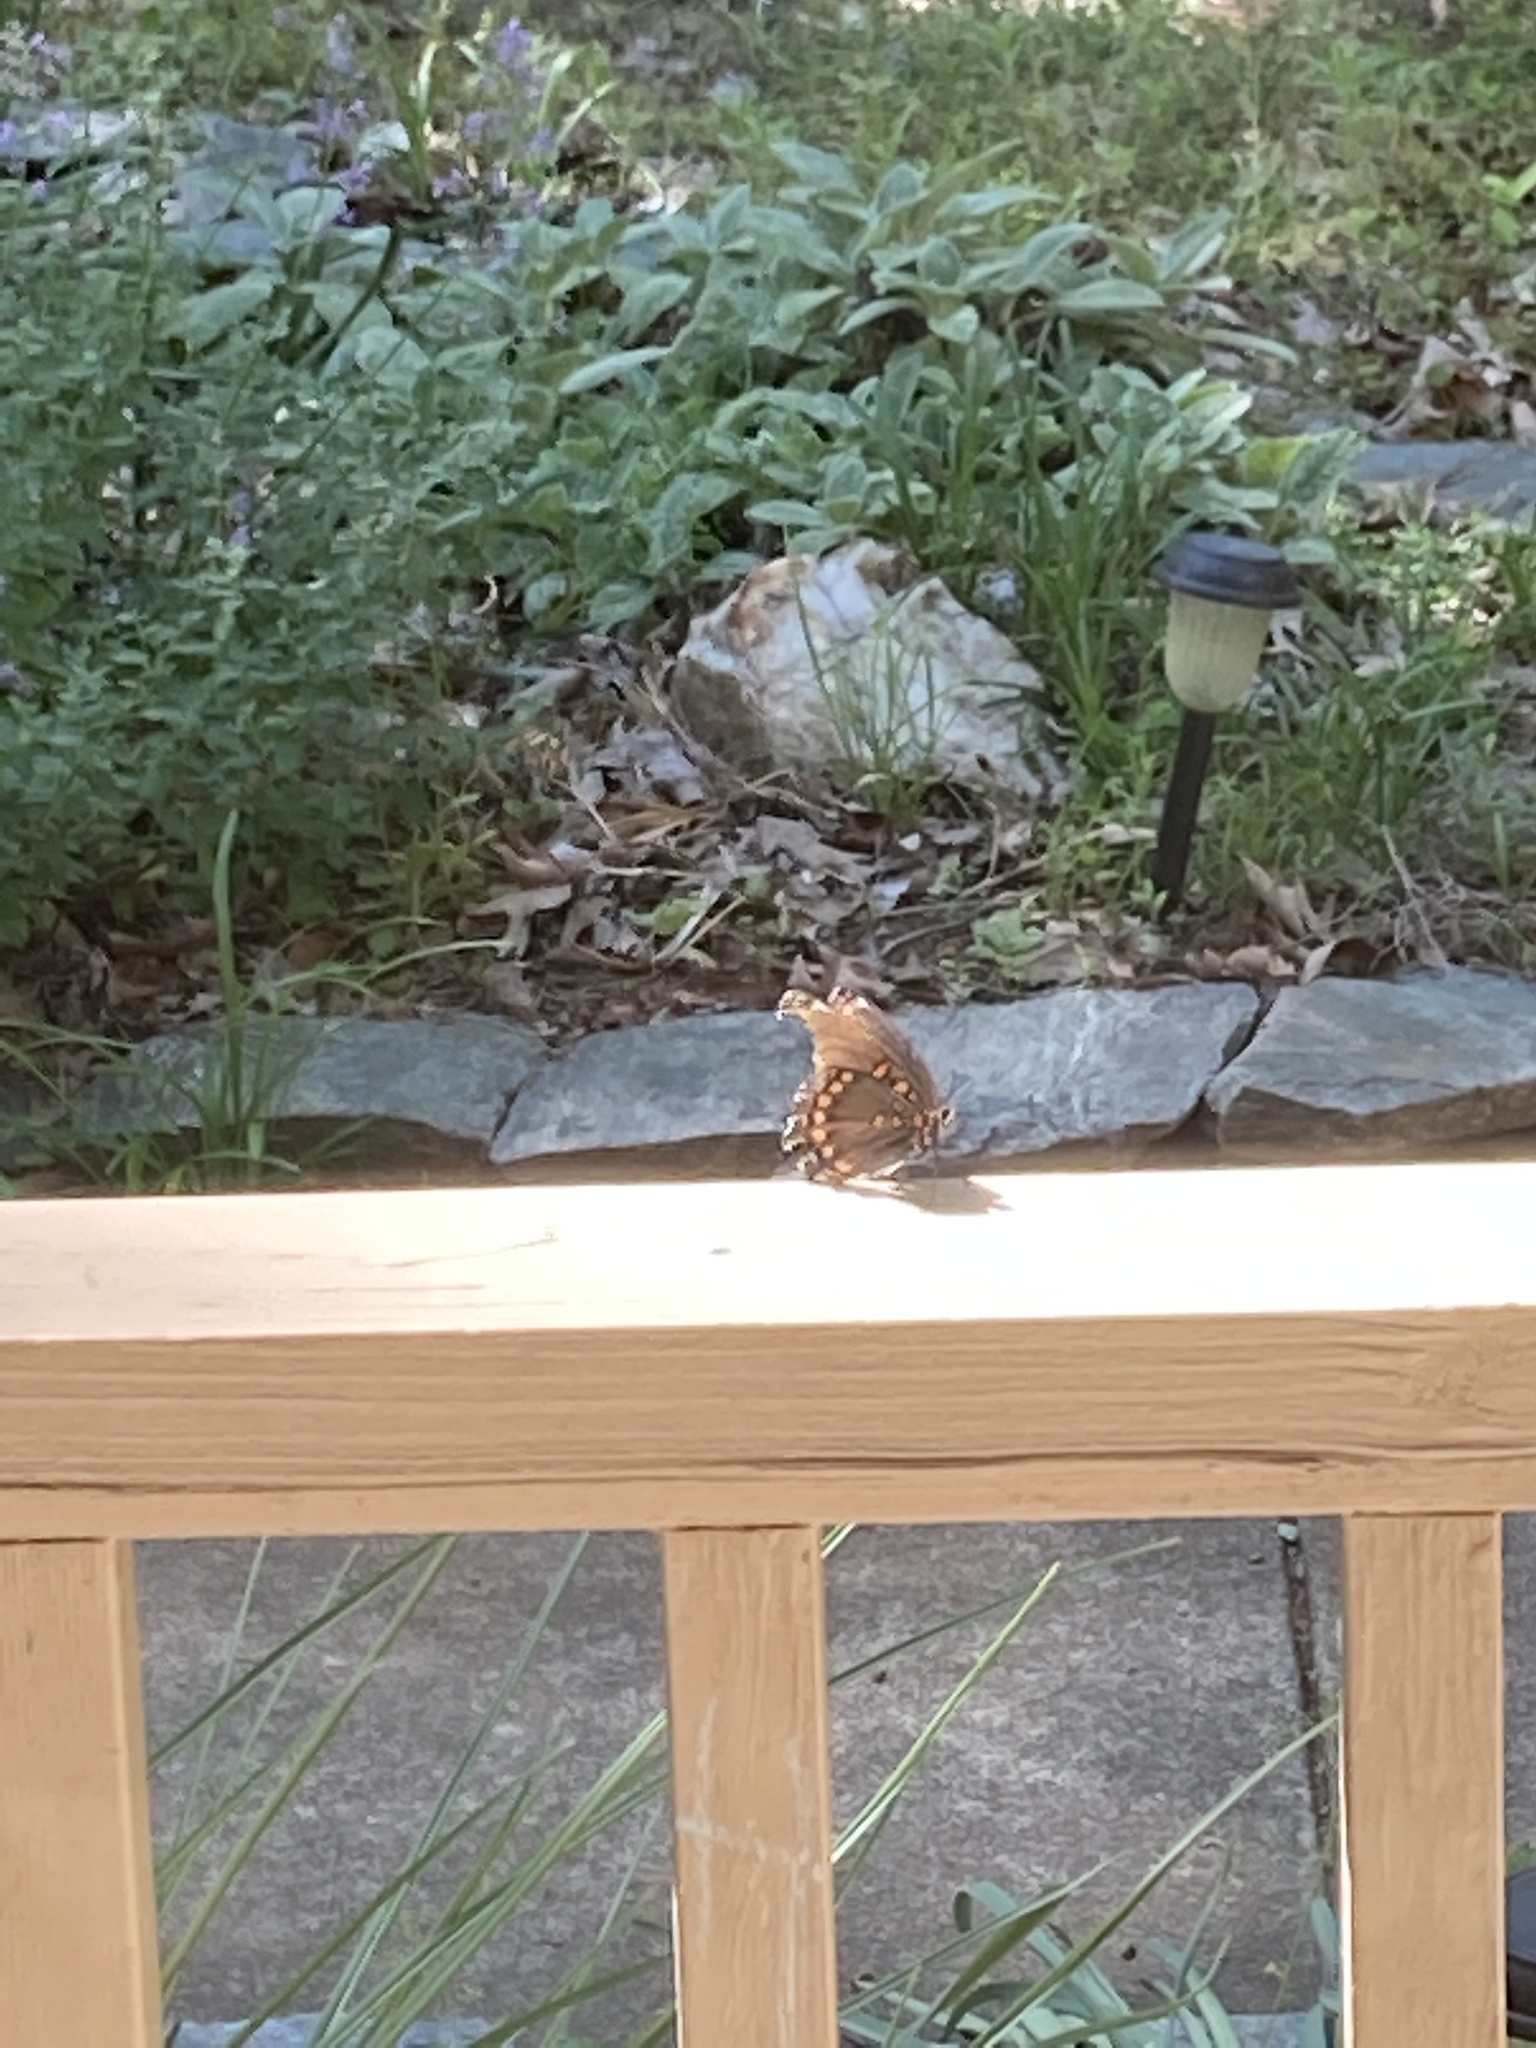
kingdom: Animalia
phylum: Arthropoda
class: Insecta
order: Lepidoptera
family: Nymphalidae
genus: Limenitis
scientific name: Limenitis astyanax
